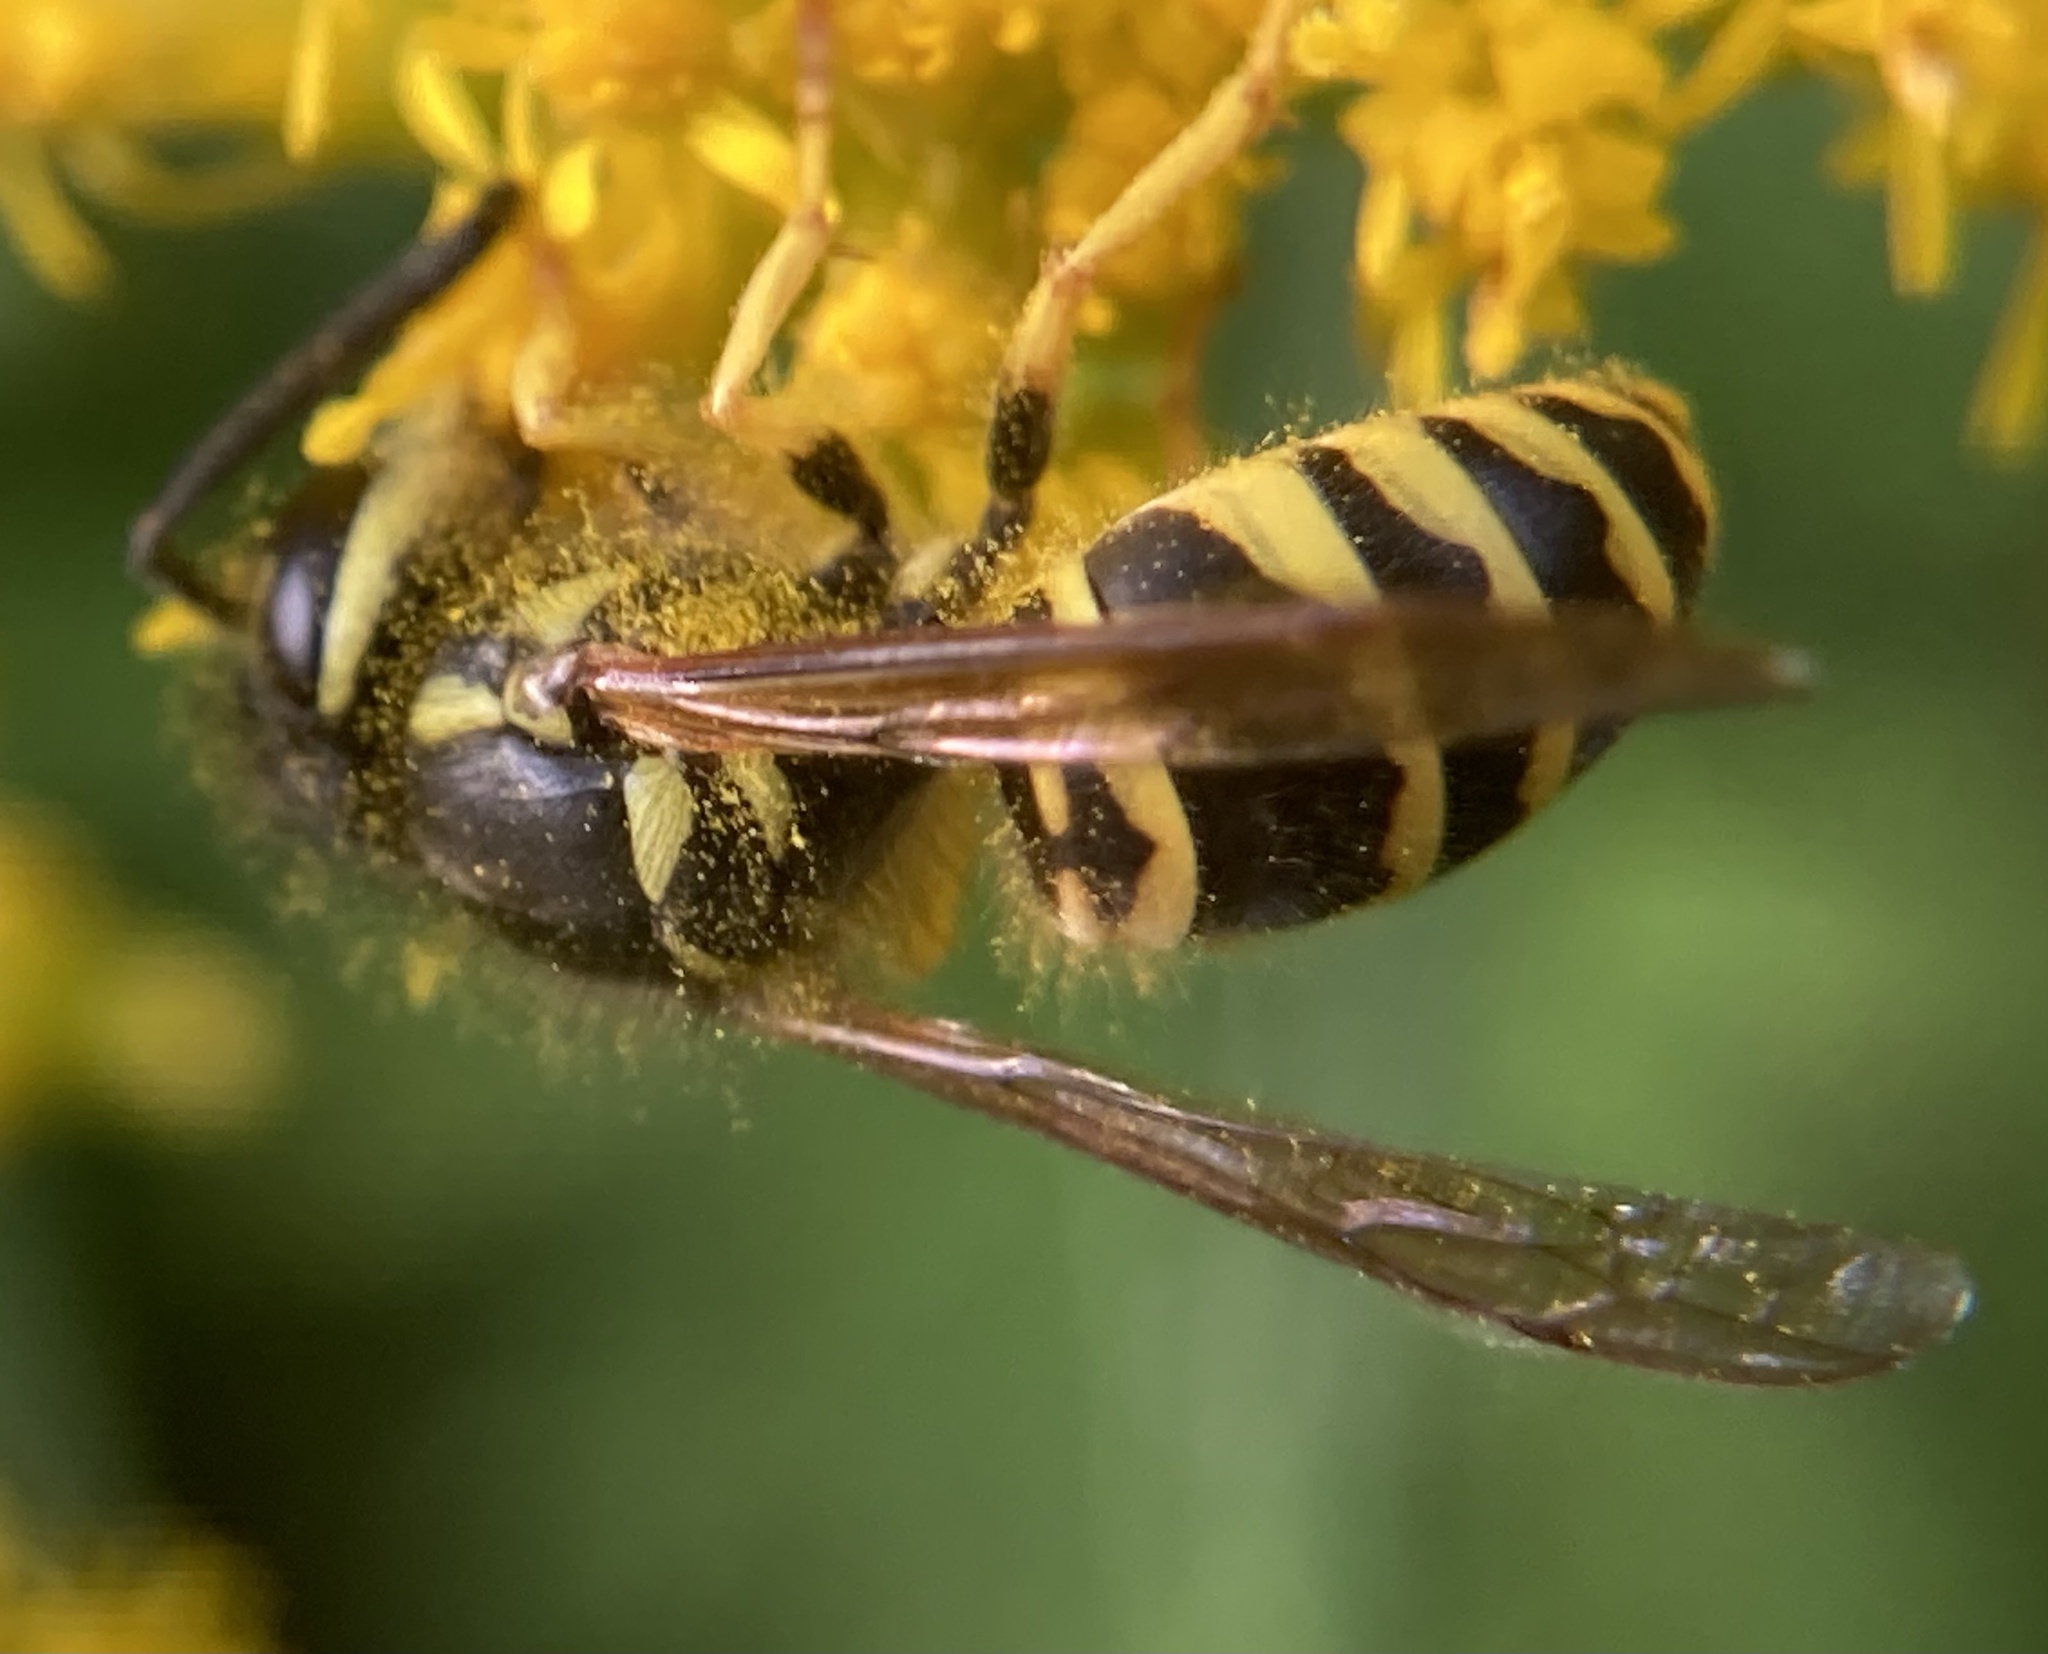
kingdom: Animalia
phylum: Arthropoda
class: Insecta
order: Hymenoptera
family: Vespidae
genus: Vespula
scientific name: Vespula maculifrons
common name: Eastern yellowjacket
